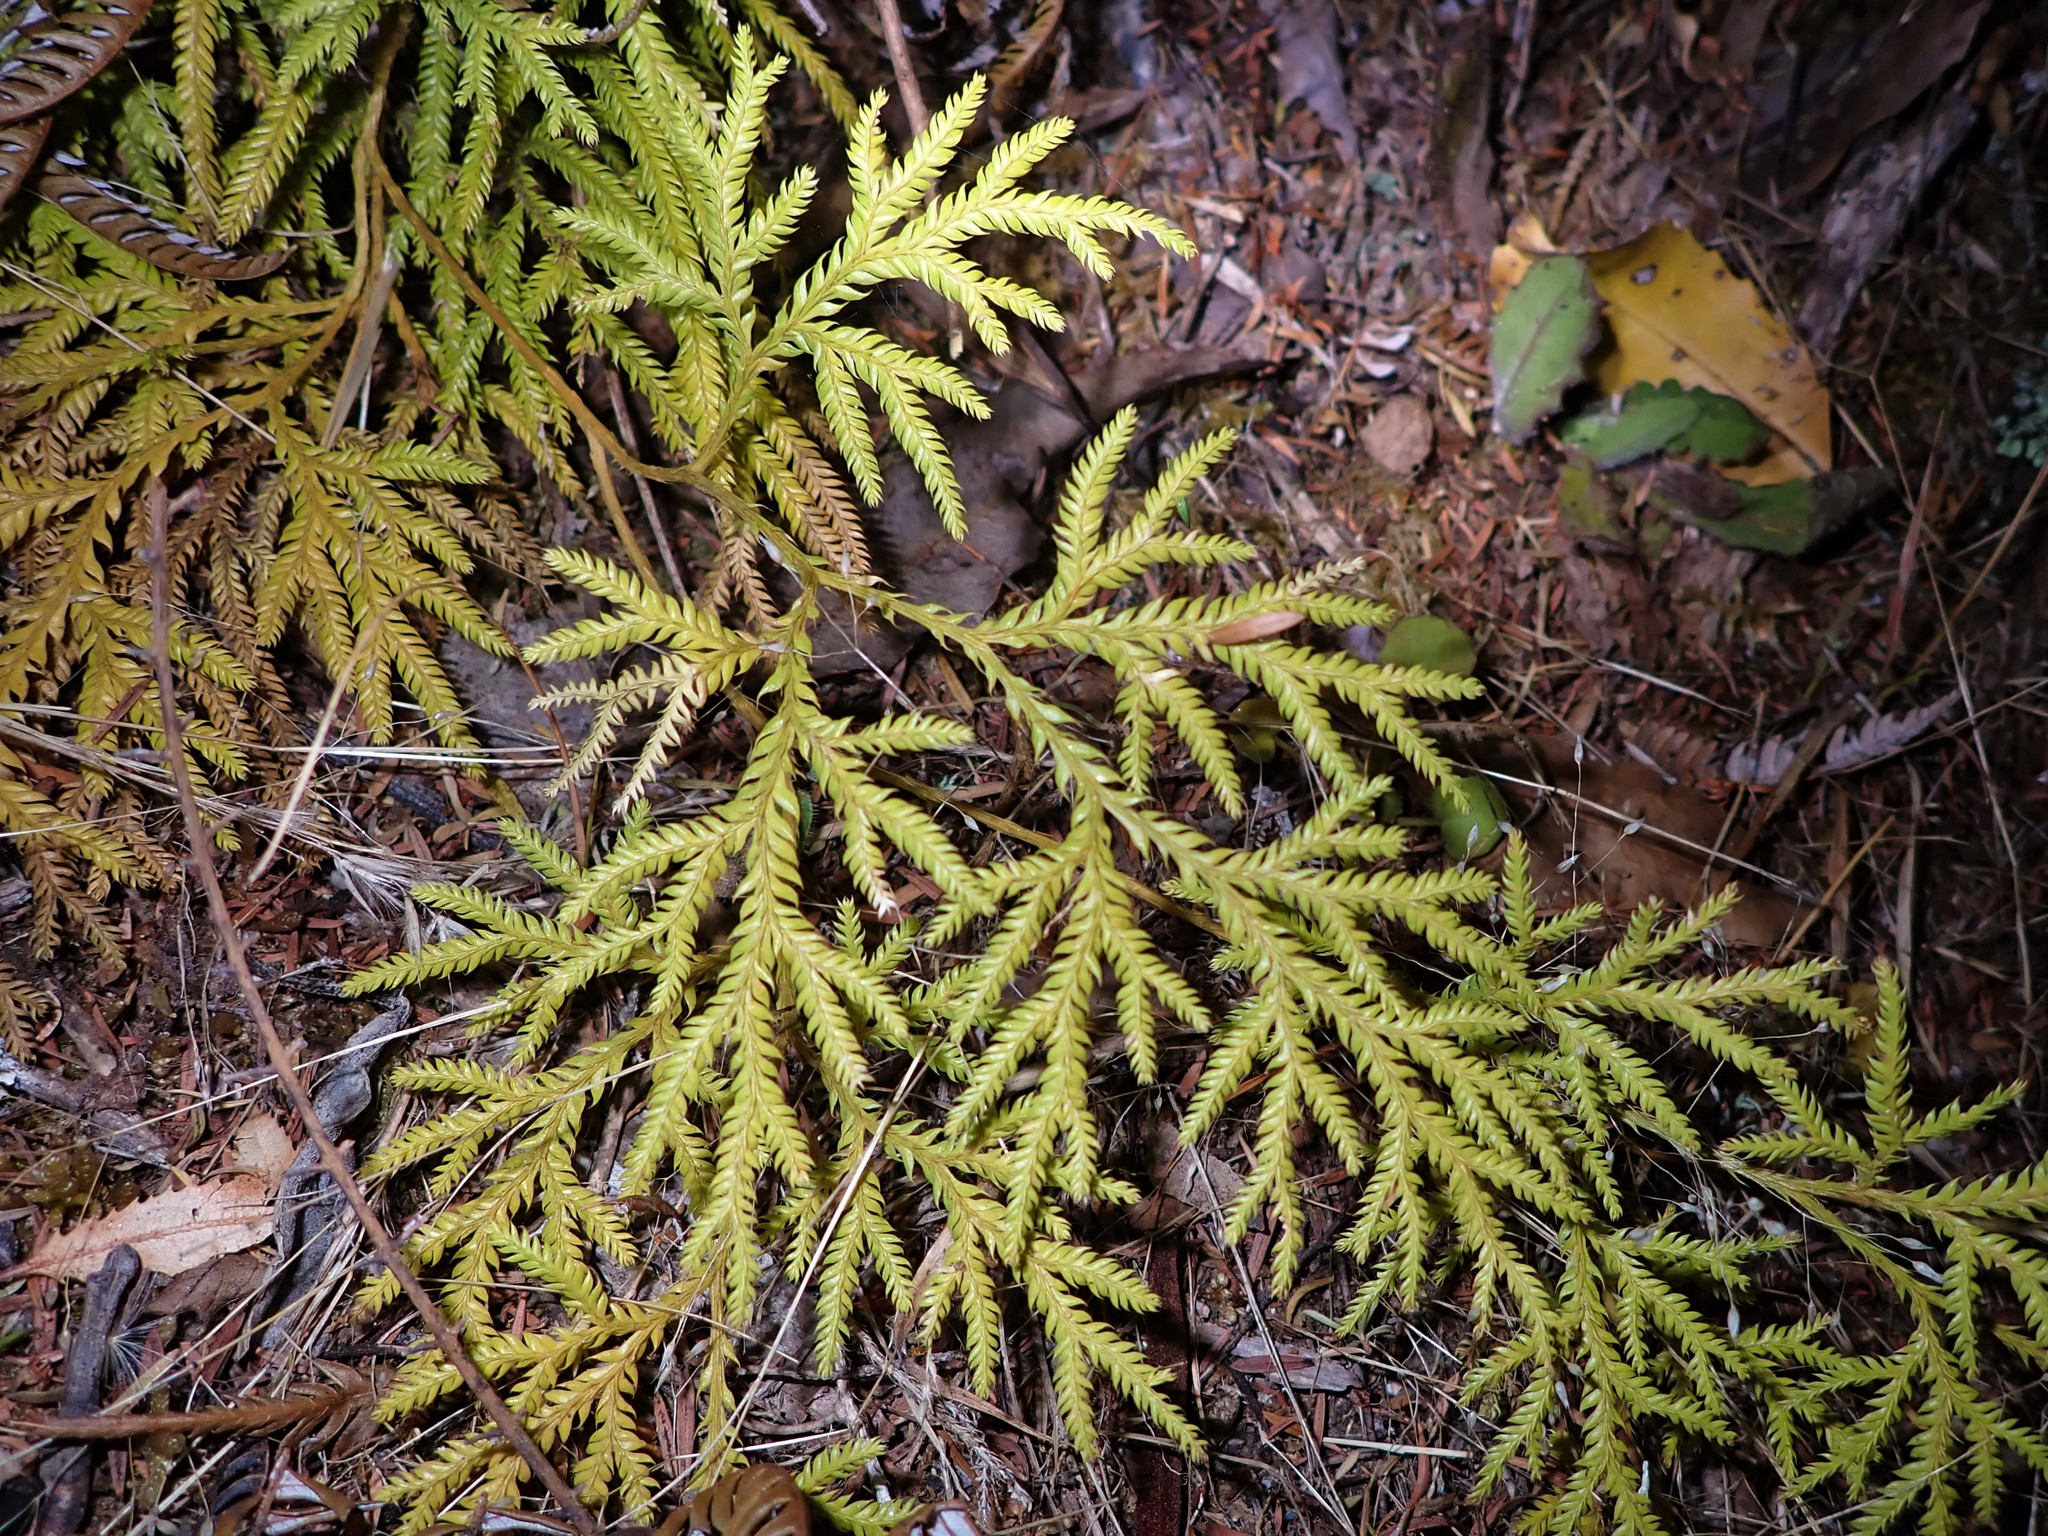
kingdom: Plantae
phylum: Tracheophyta
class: Lycopodiopsida
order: Lycopodiales
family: Lycopodiaceae
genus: Lycopodium
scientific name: Lycopodium volubile
